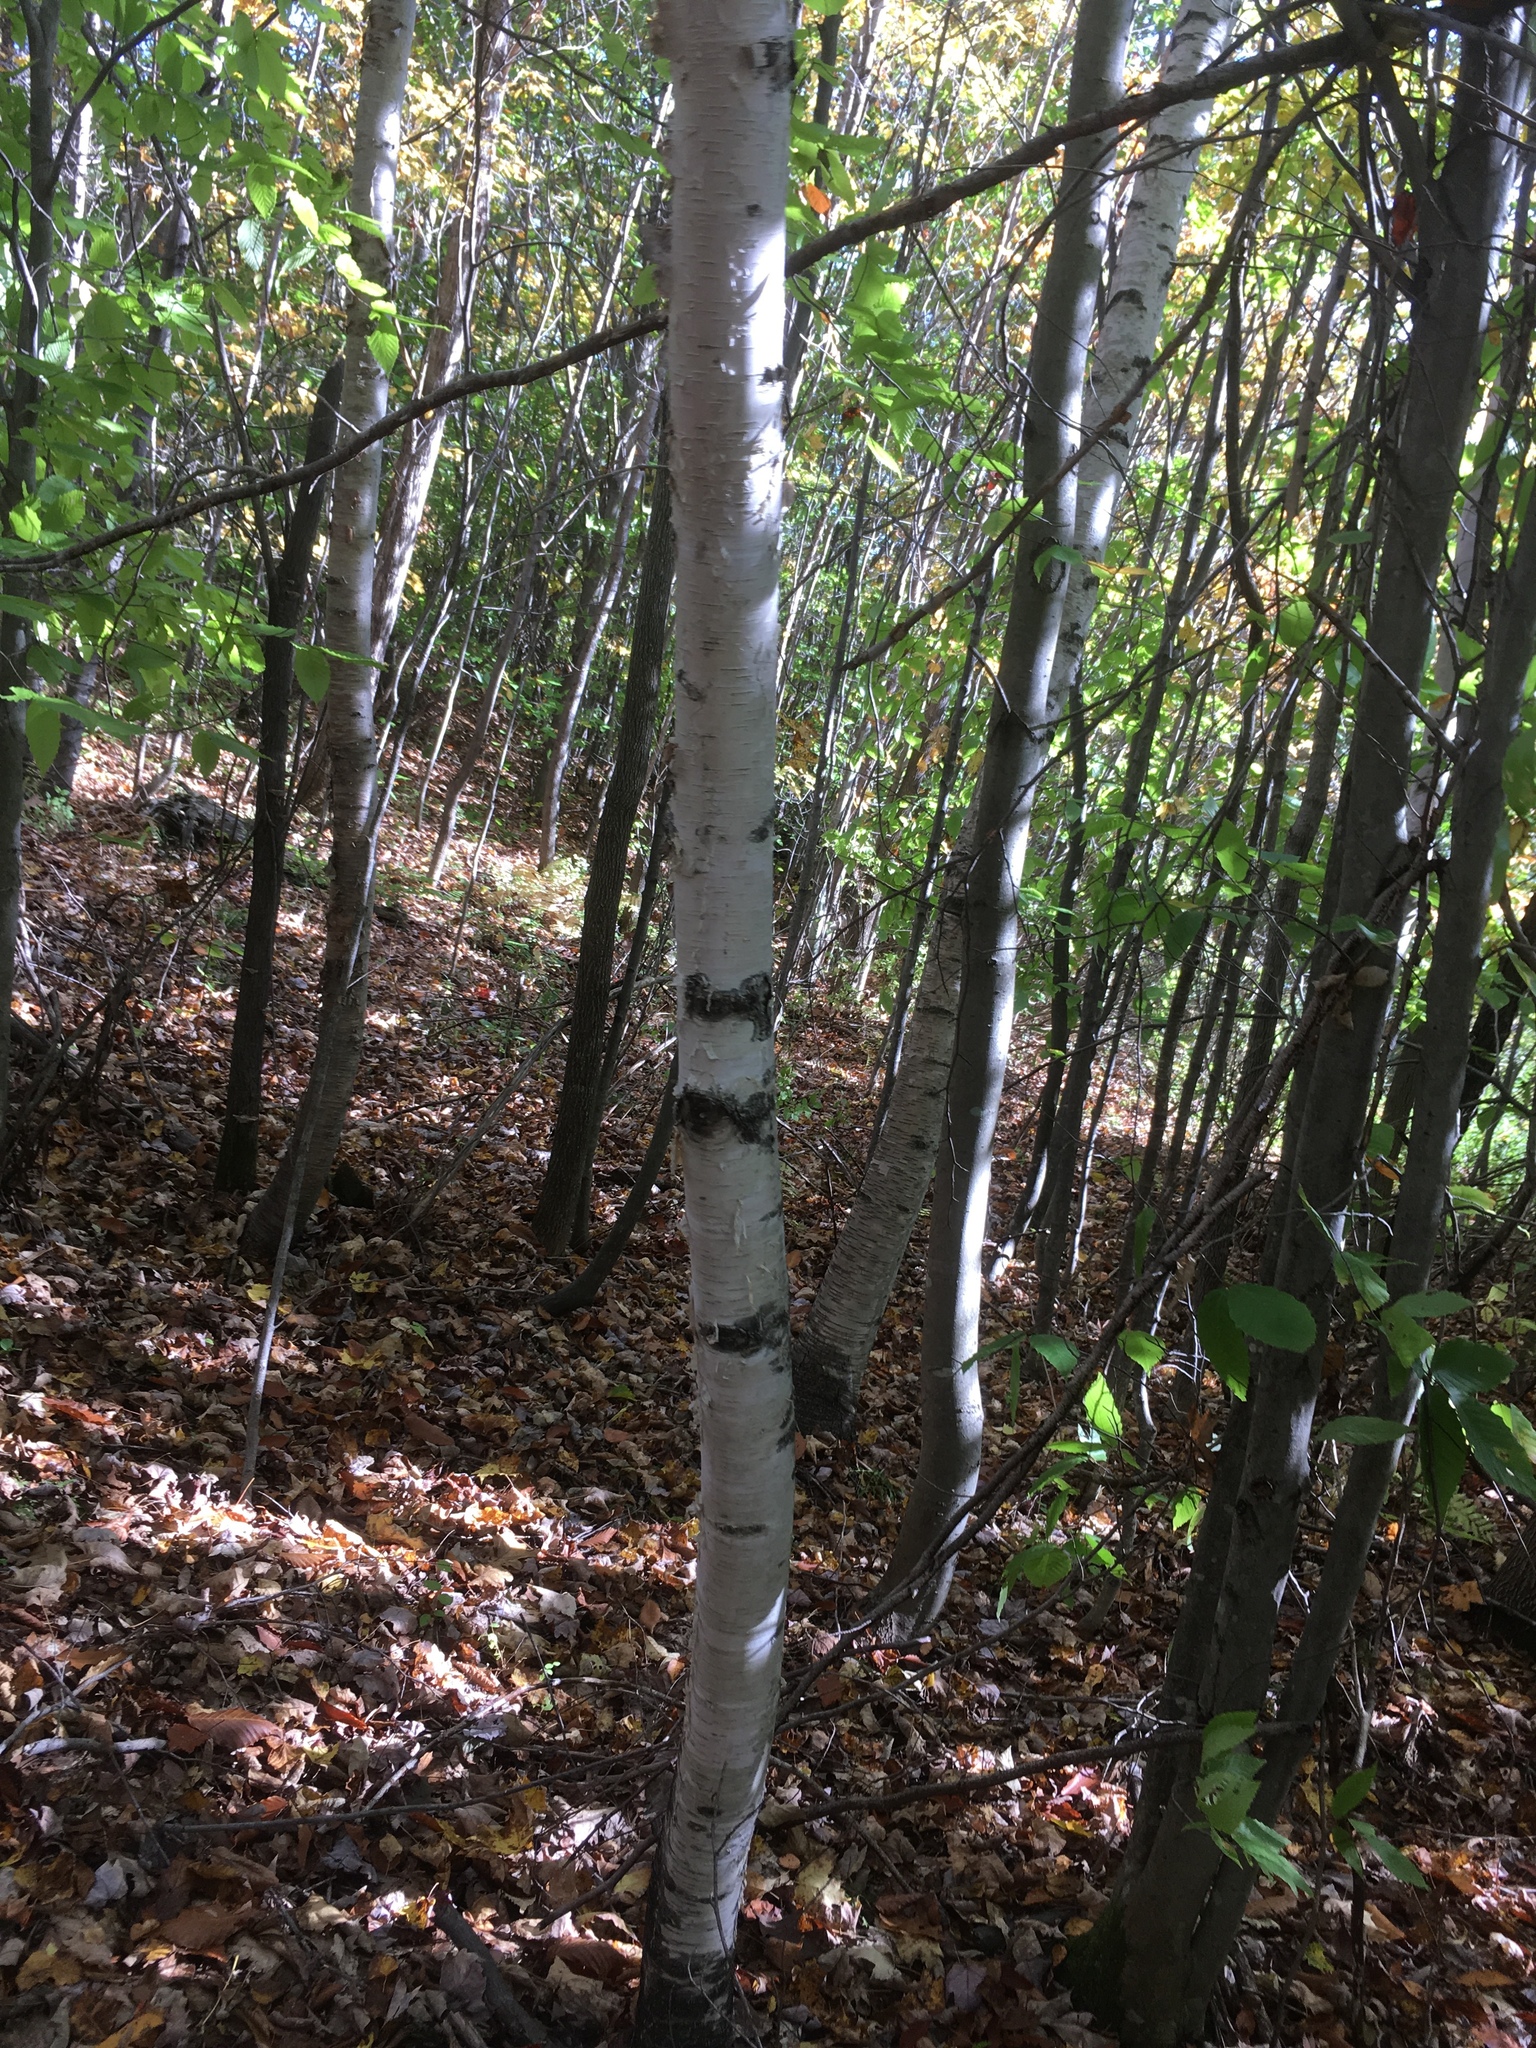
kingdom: Plantae
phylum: Tracheophyta
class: Magnoliopsida
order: Fagales
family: Betulaceae
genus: Betula
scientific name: Betula papyrifera
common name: Paper birch
